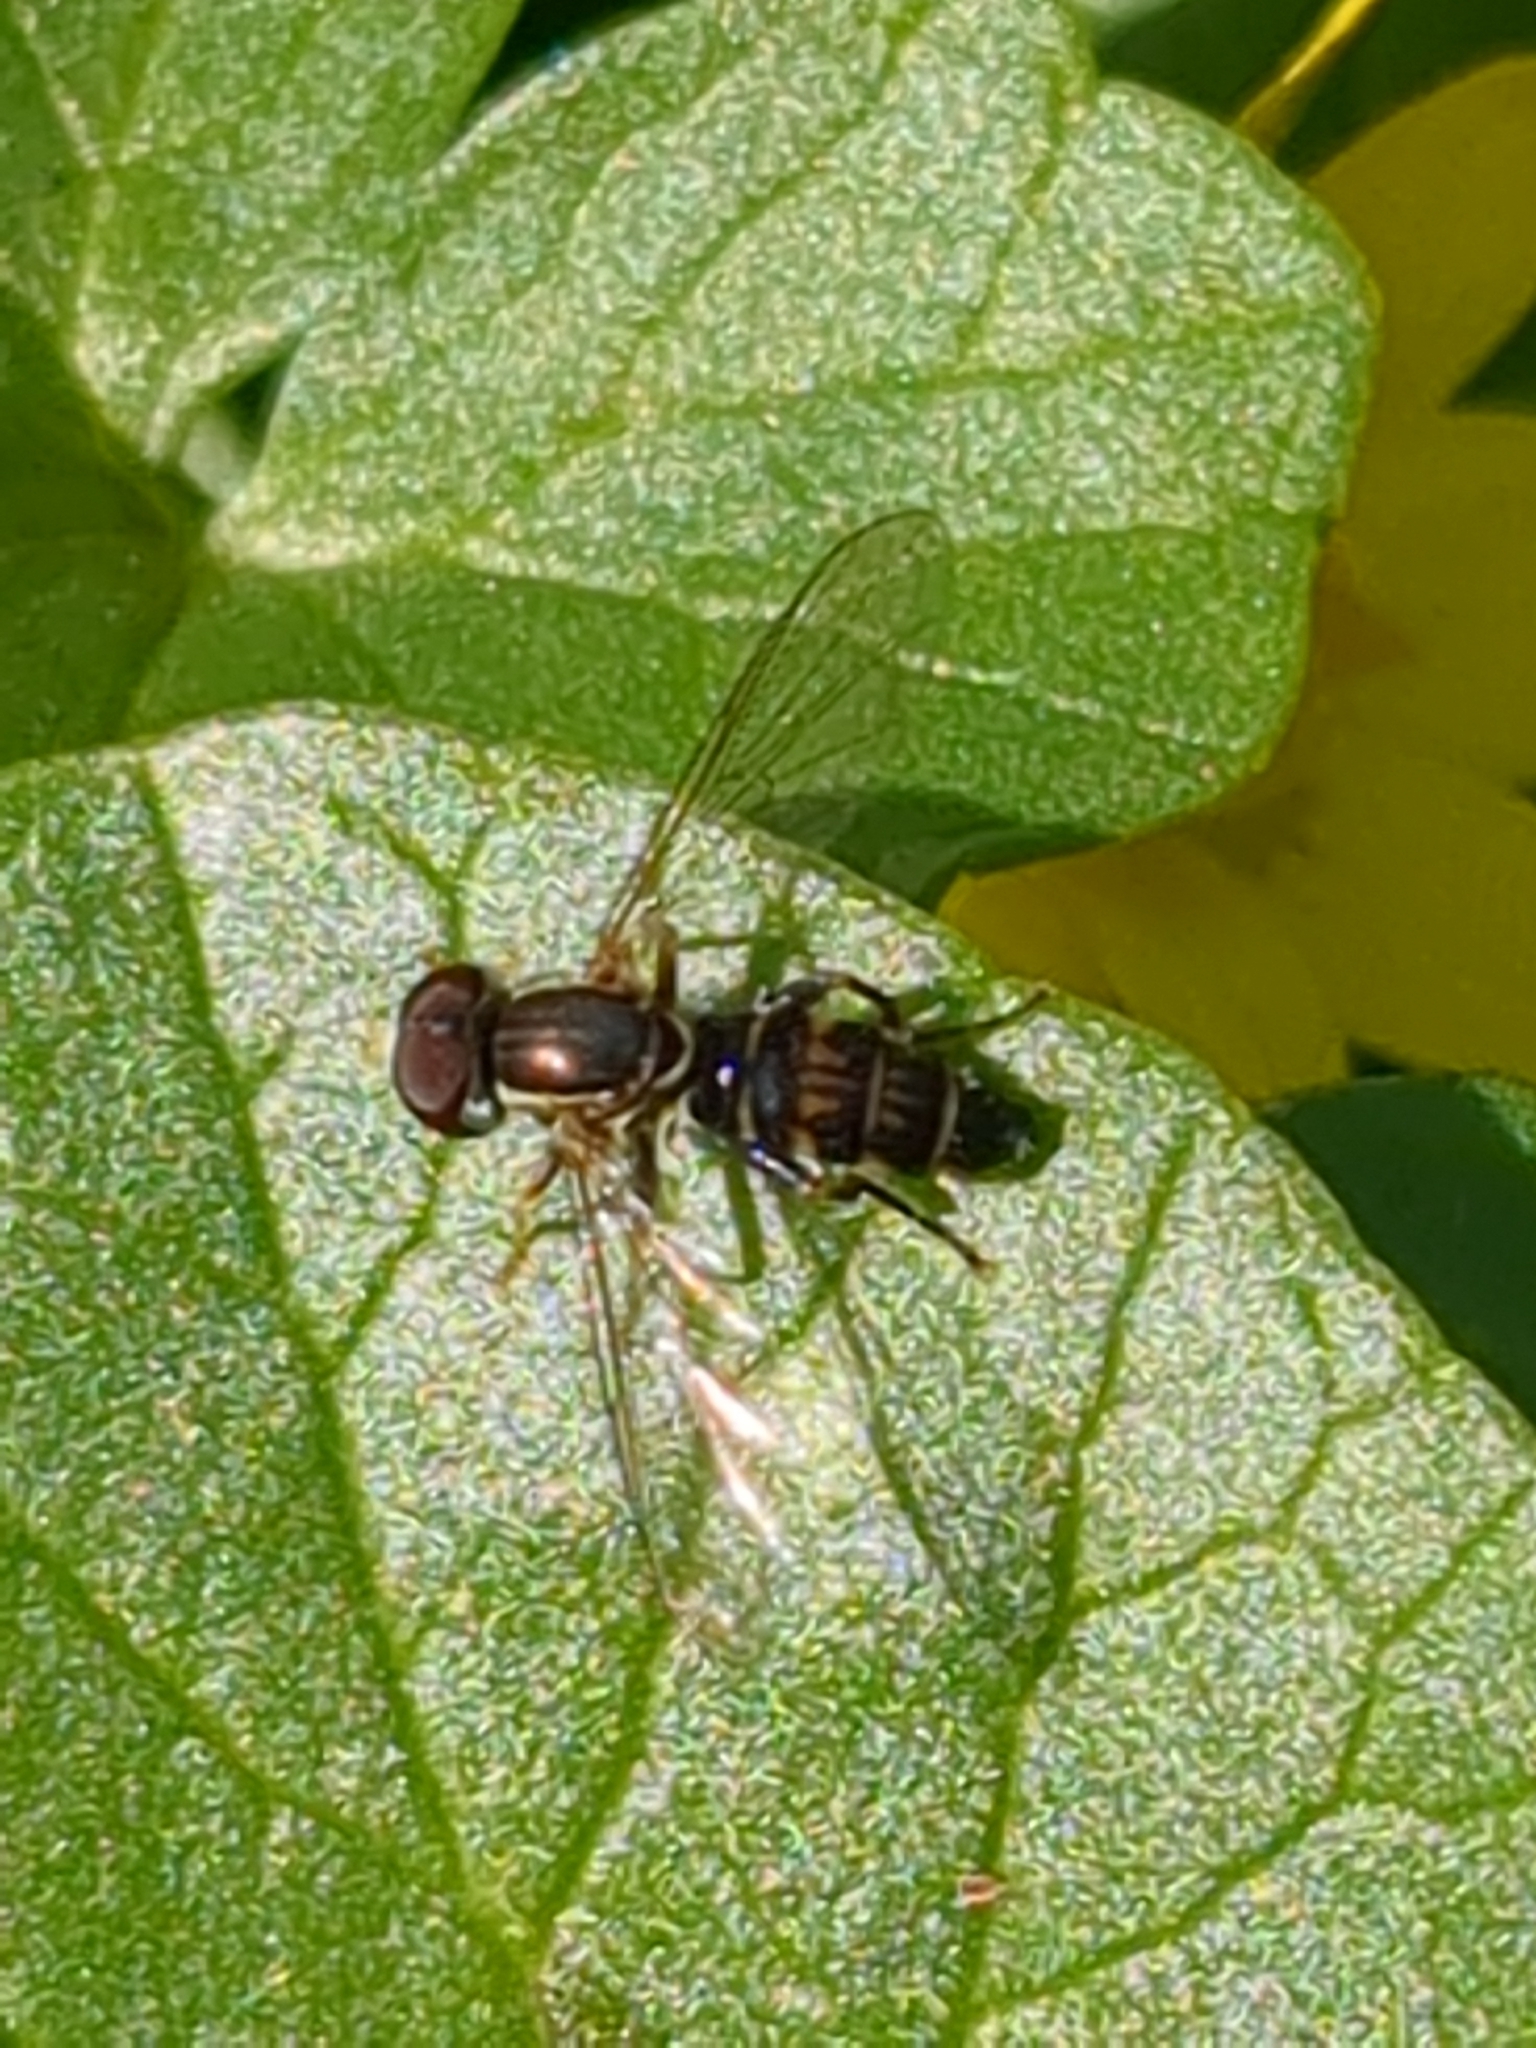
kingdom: Animalia
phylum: Arthropoda
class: Insecta
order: Diptera
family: Syrphidae
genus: Toxomerus
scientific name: Toxomerus geminatus
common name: Eastern calligrapher
